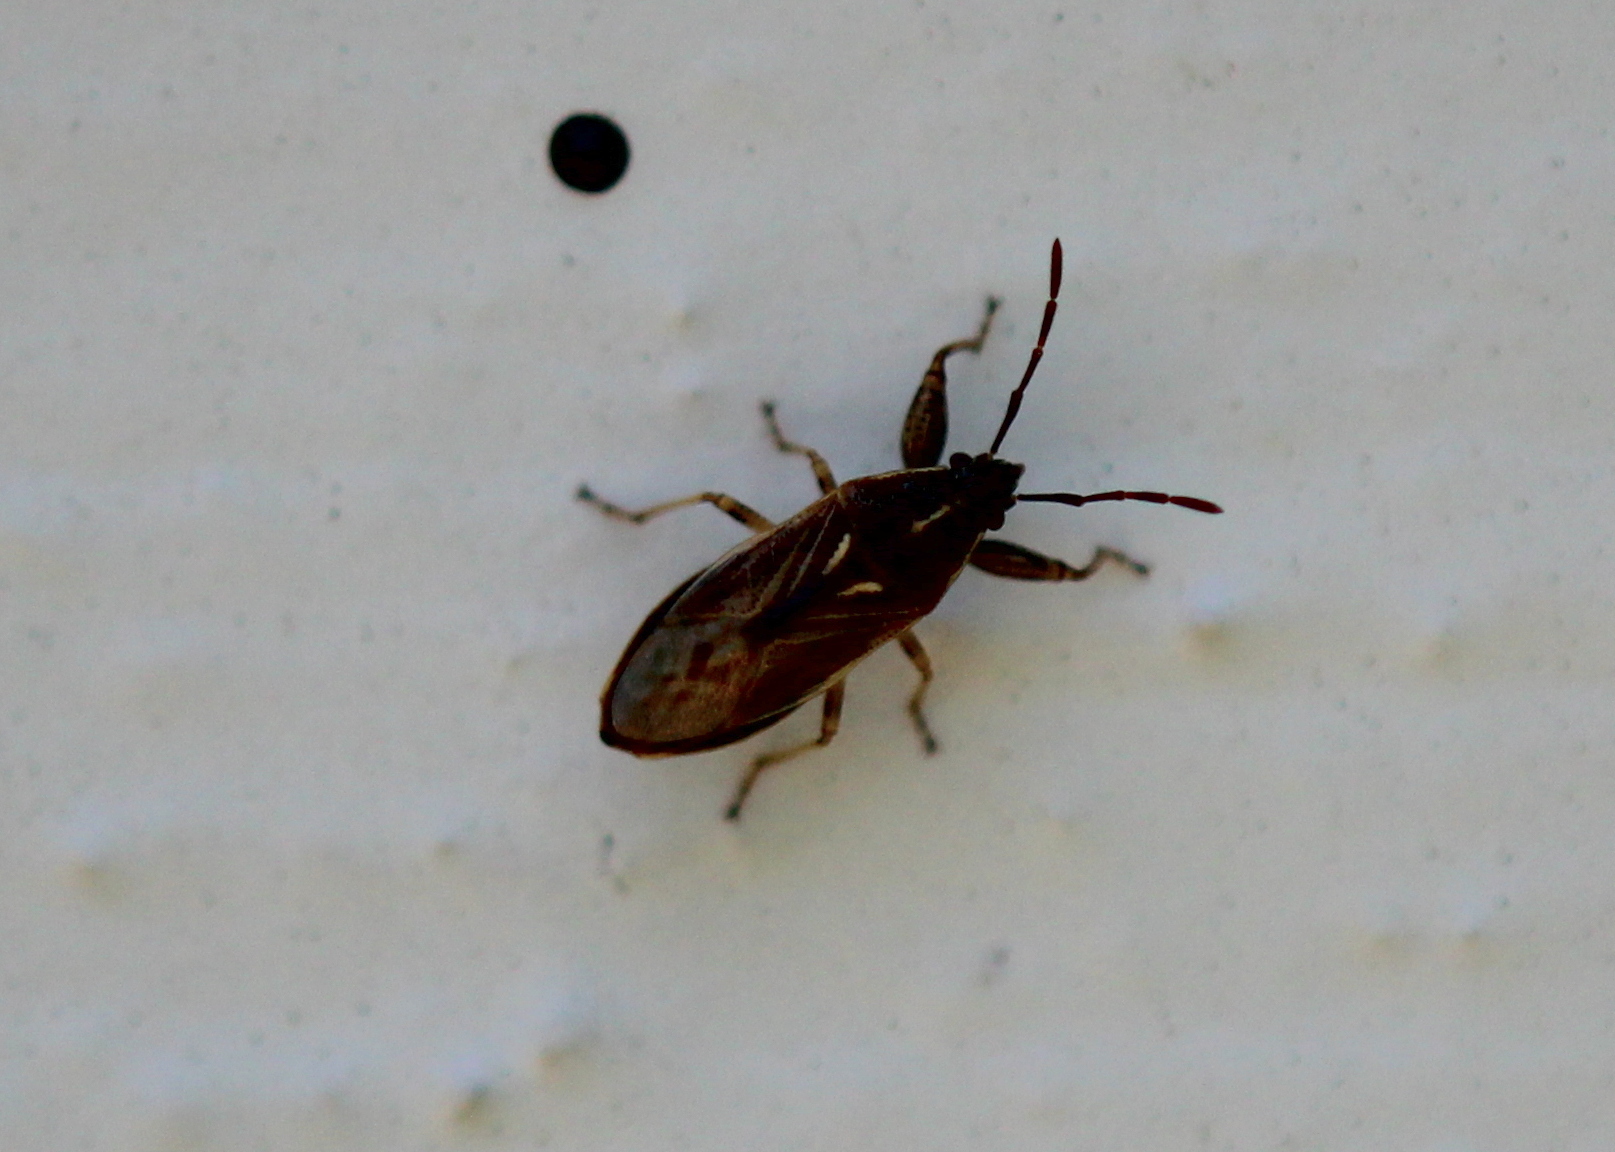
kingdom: Animalia
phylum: Arthropoda
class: Insecta
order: Hemiptera
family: Pachygronthidae
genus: Oedancala
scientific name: Oedancala dorsalis
